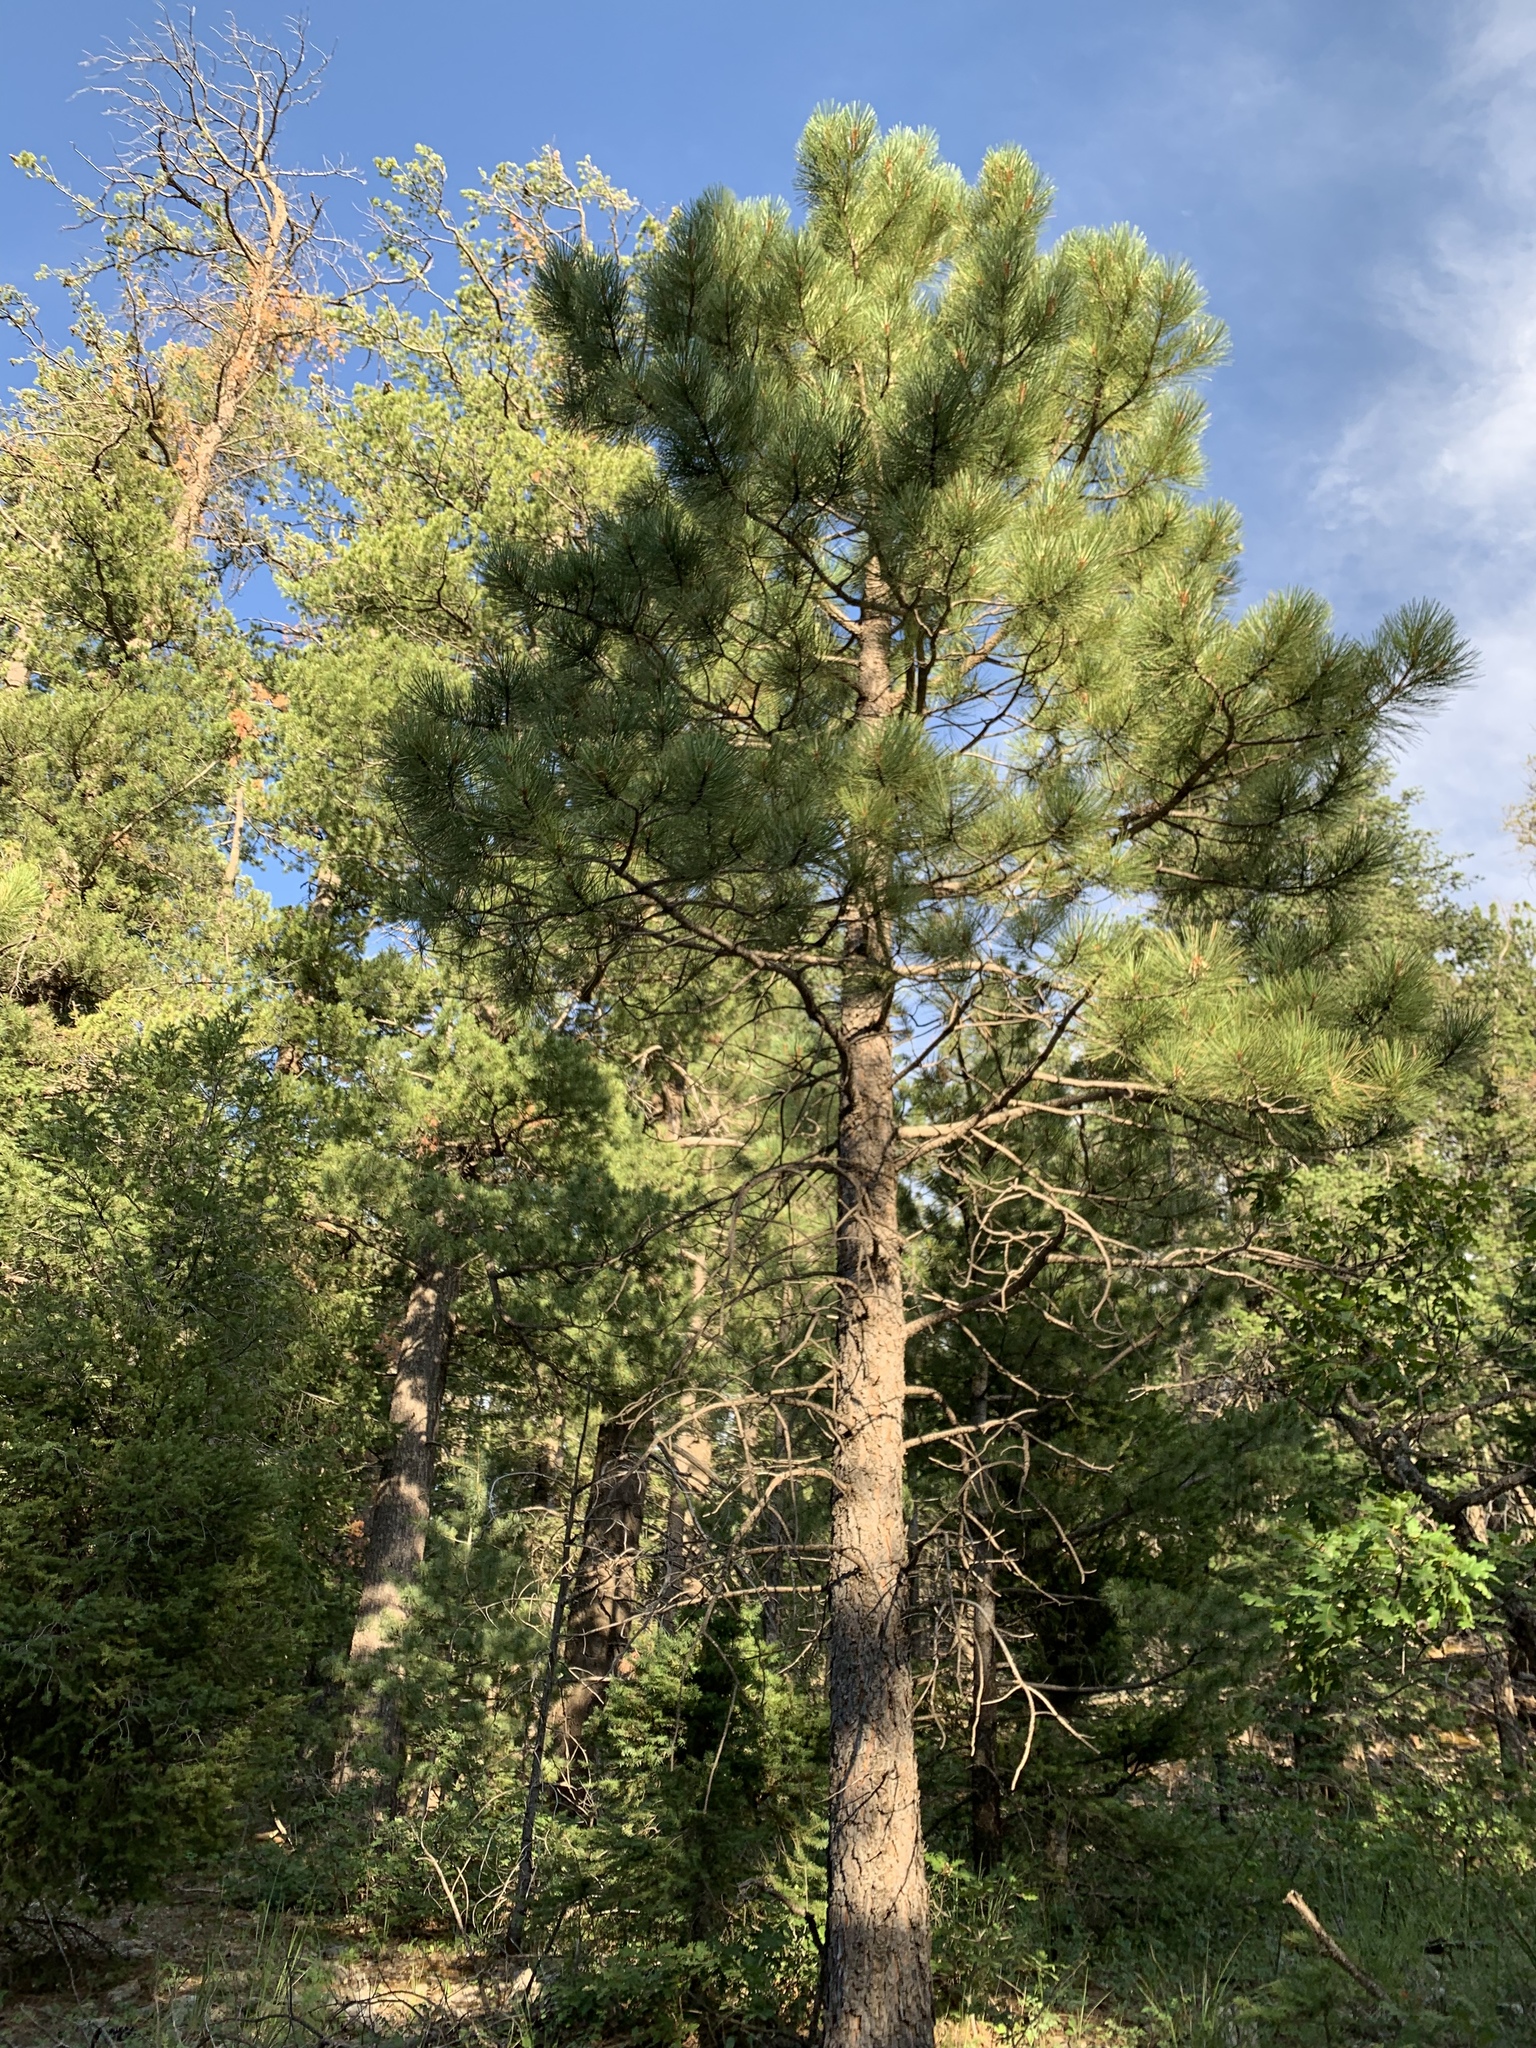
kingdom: Plantae
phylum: Tracheophyta
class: Pinopsida
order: Pinales
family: Pinaceae
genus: Pinus
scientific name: Pinus ponderosa
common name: Western yellow-pine
